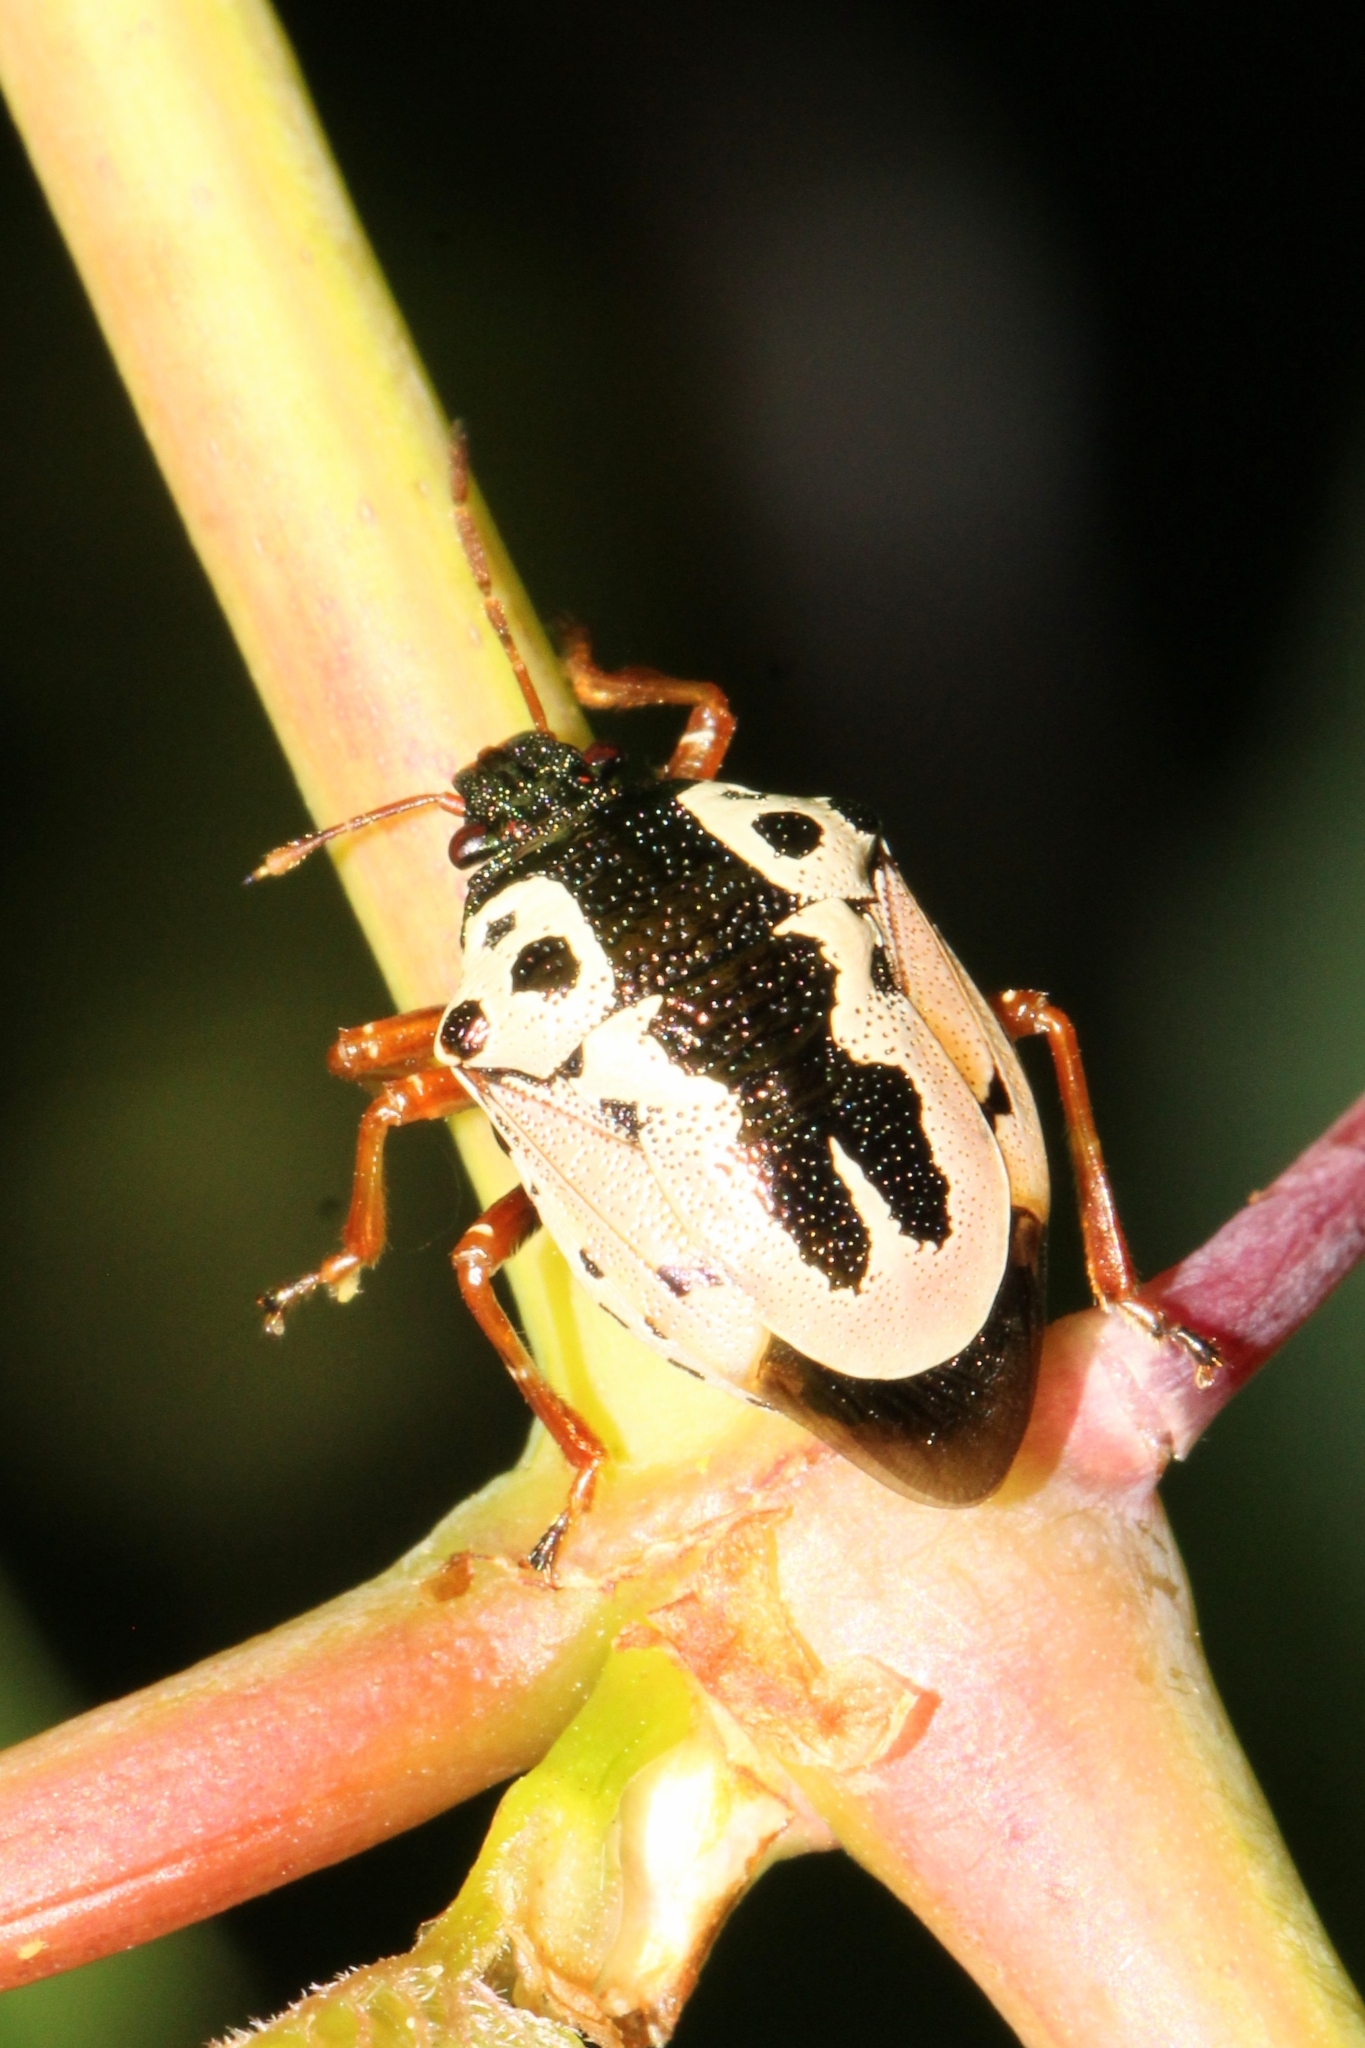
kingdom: Animalia
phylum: Arthropoda
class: Insecta
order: Hemiptera
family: Pentatomidae
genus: Stiretrus
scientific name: Stiretrus anchorago
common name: Anchor stink bug
